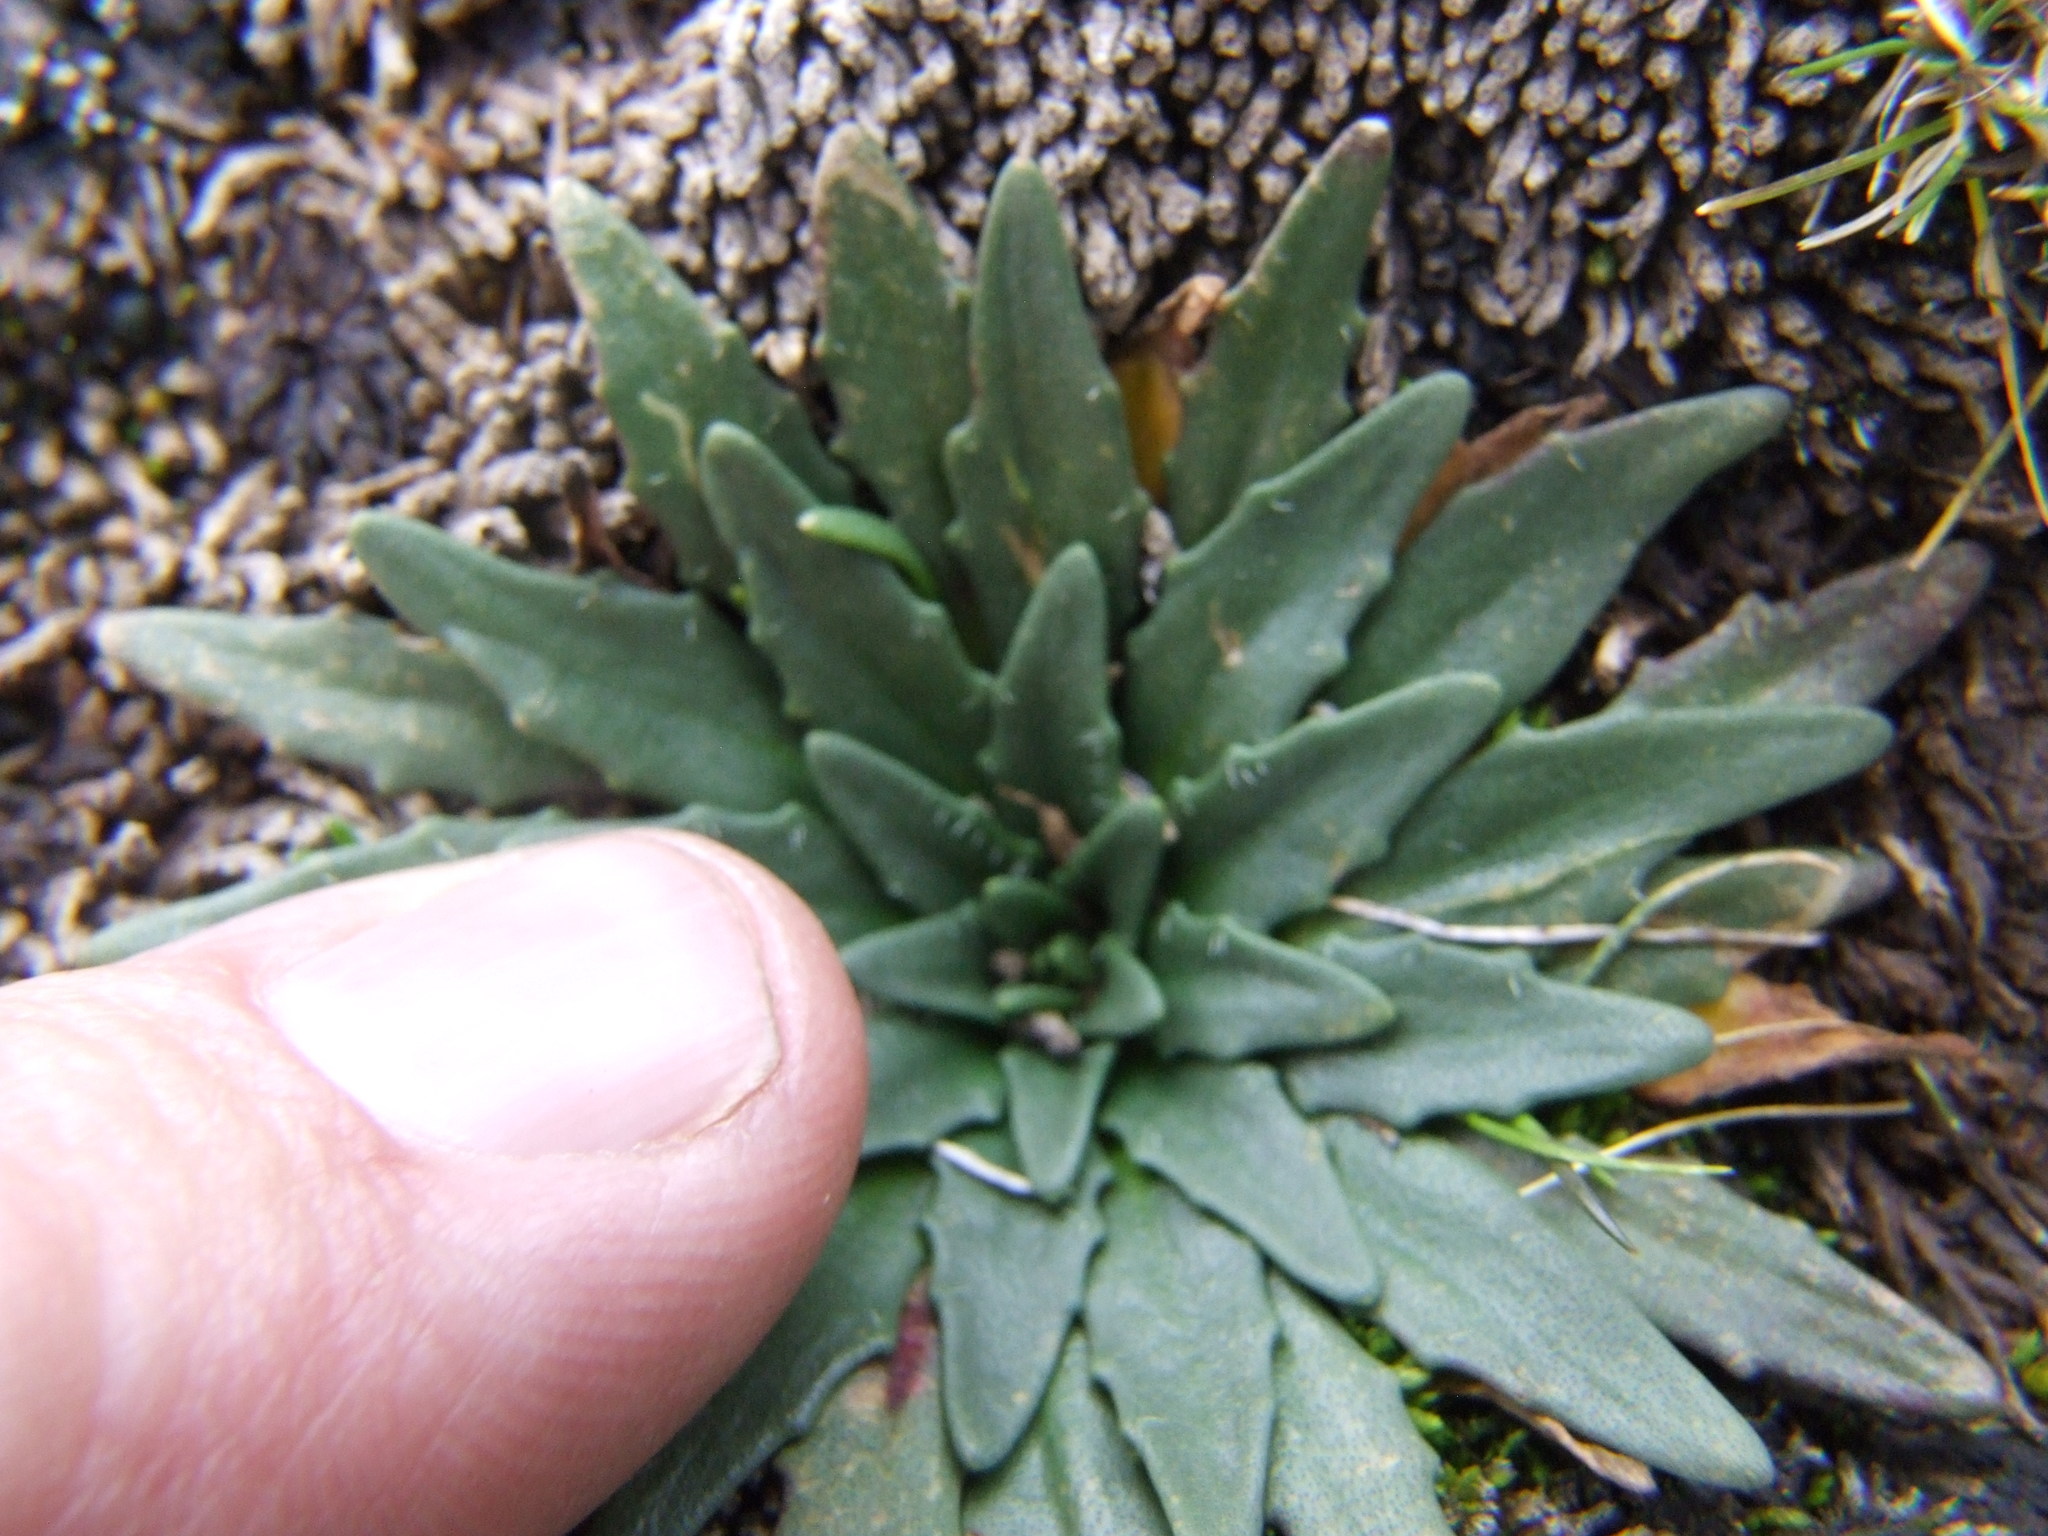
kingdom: Plantae
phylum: Tracheophyta
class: Magnoliopsida
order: Lamiales
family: Plantaginaceae
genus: Plantago
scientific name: Plantago tubulosa
